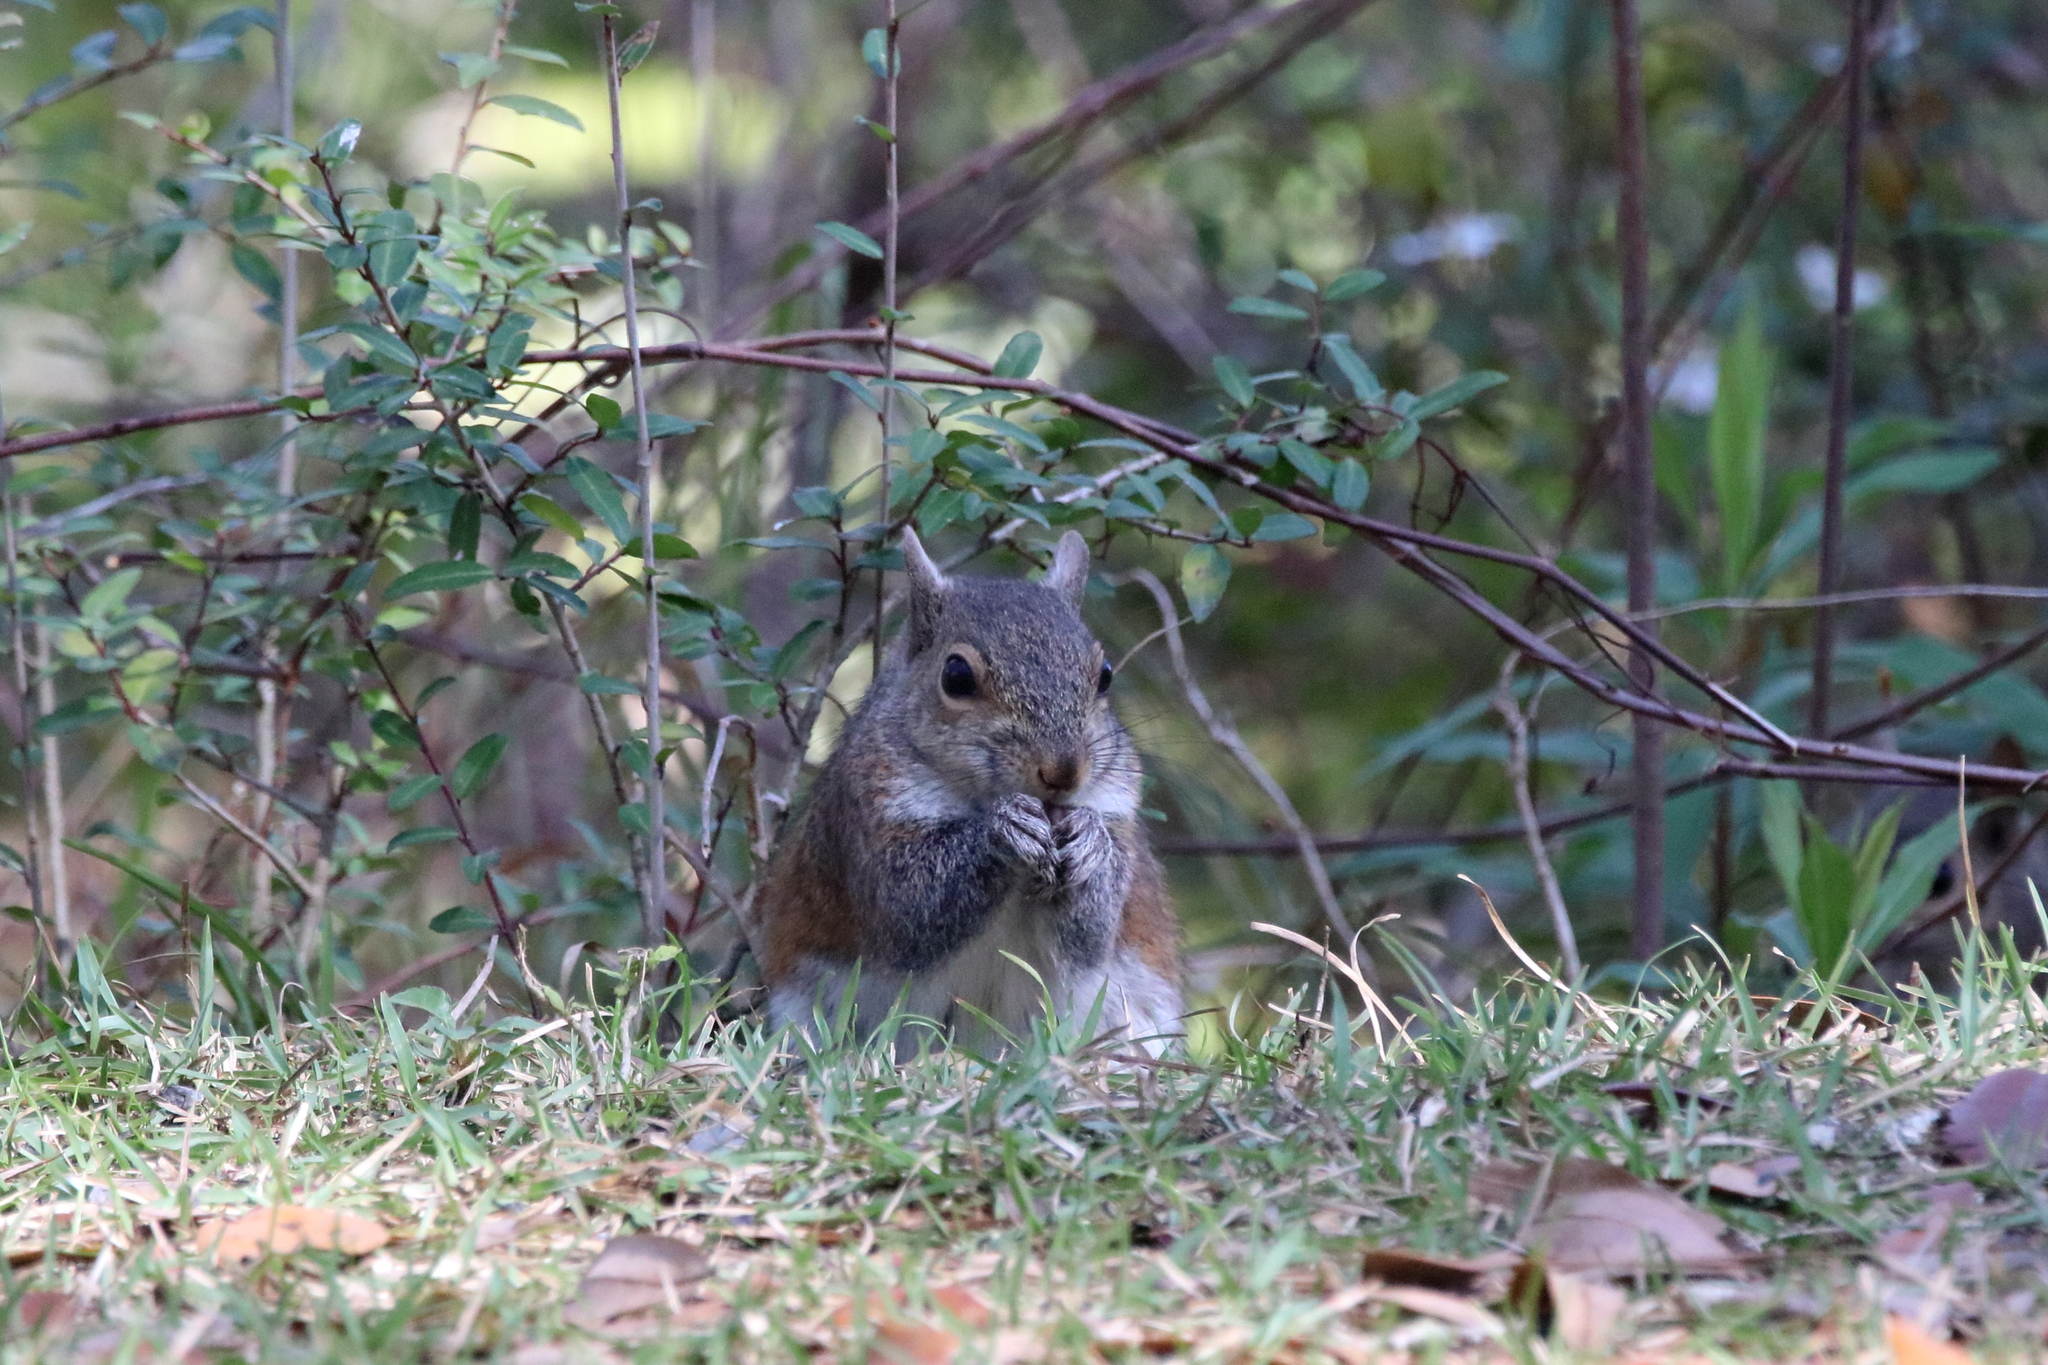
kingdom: Animalia
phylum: Chordata
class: Mammalia
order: Rodentia
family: Sciuridae
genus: Sciurus
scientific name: Sciurus carolinensis
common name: Eastern gray squirrel
